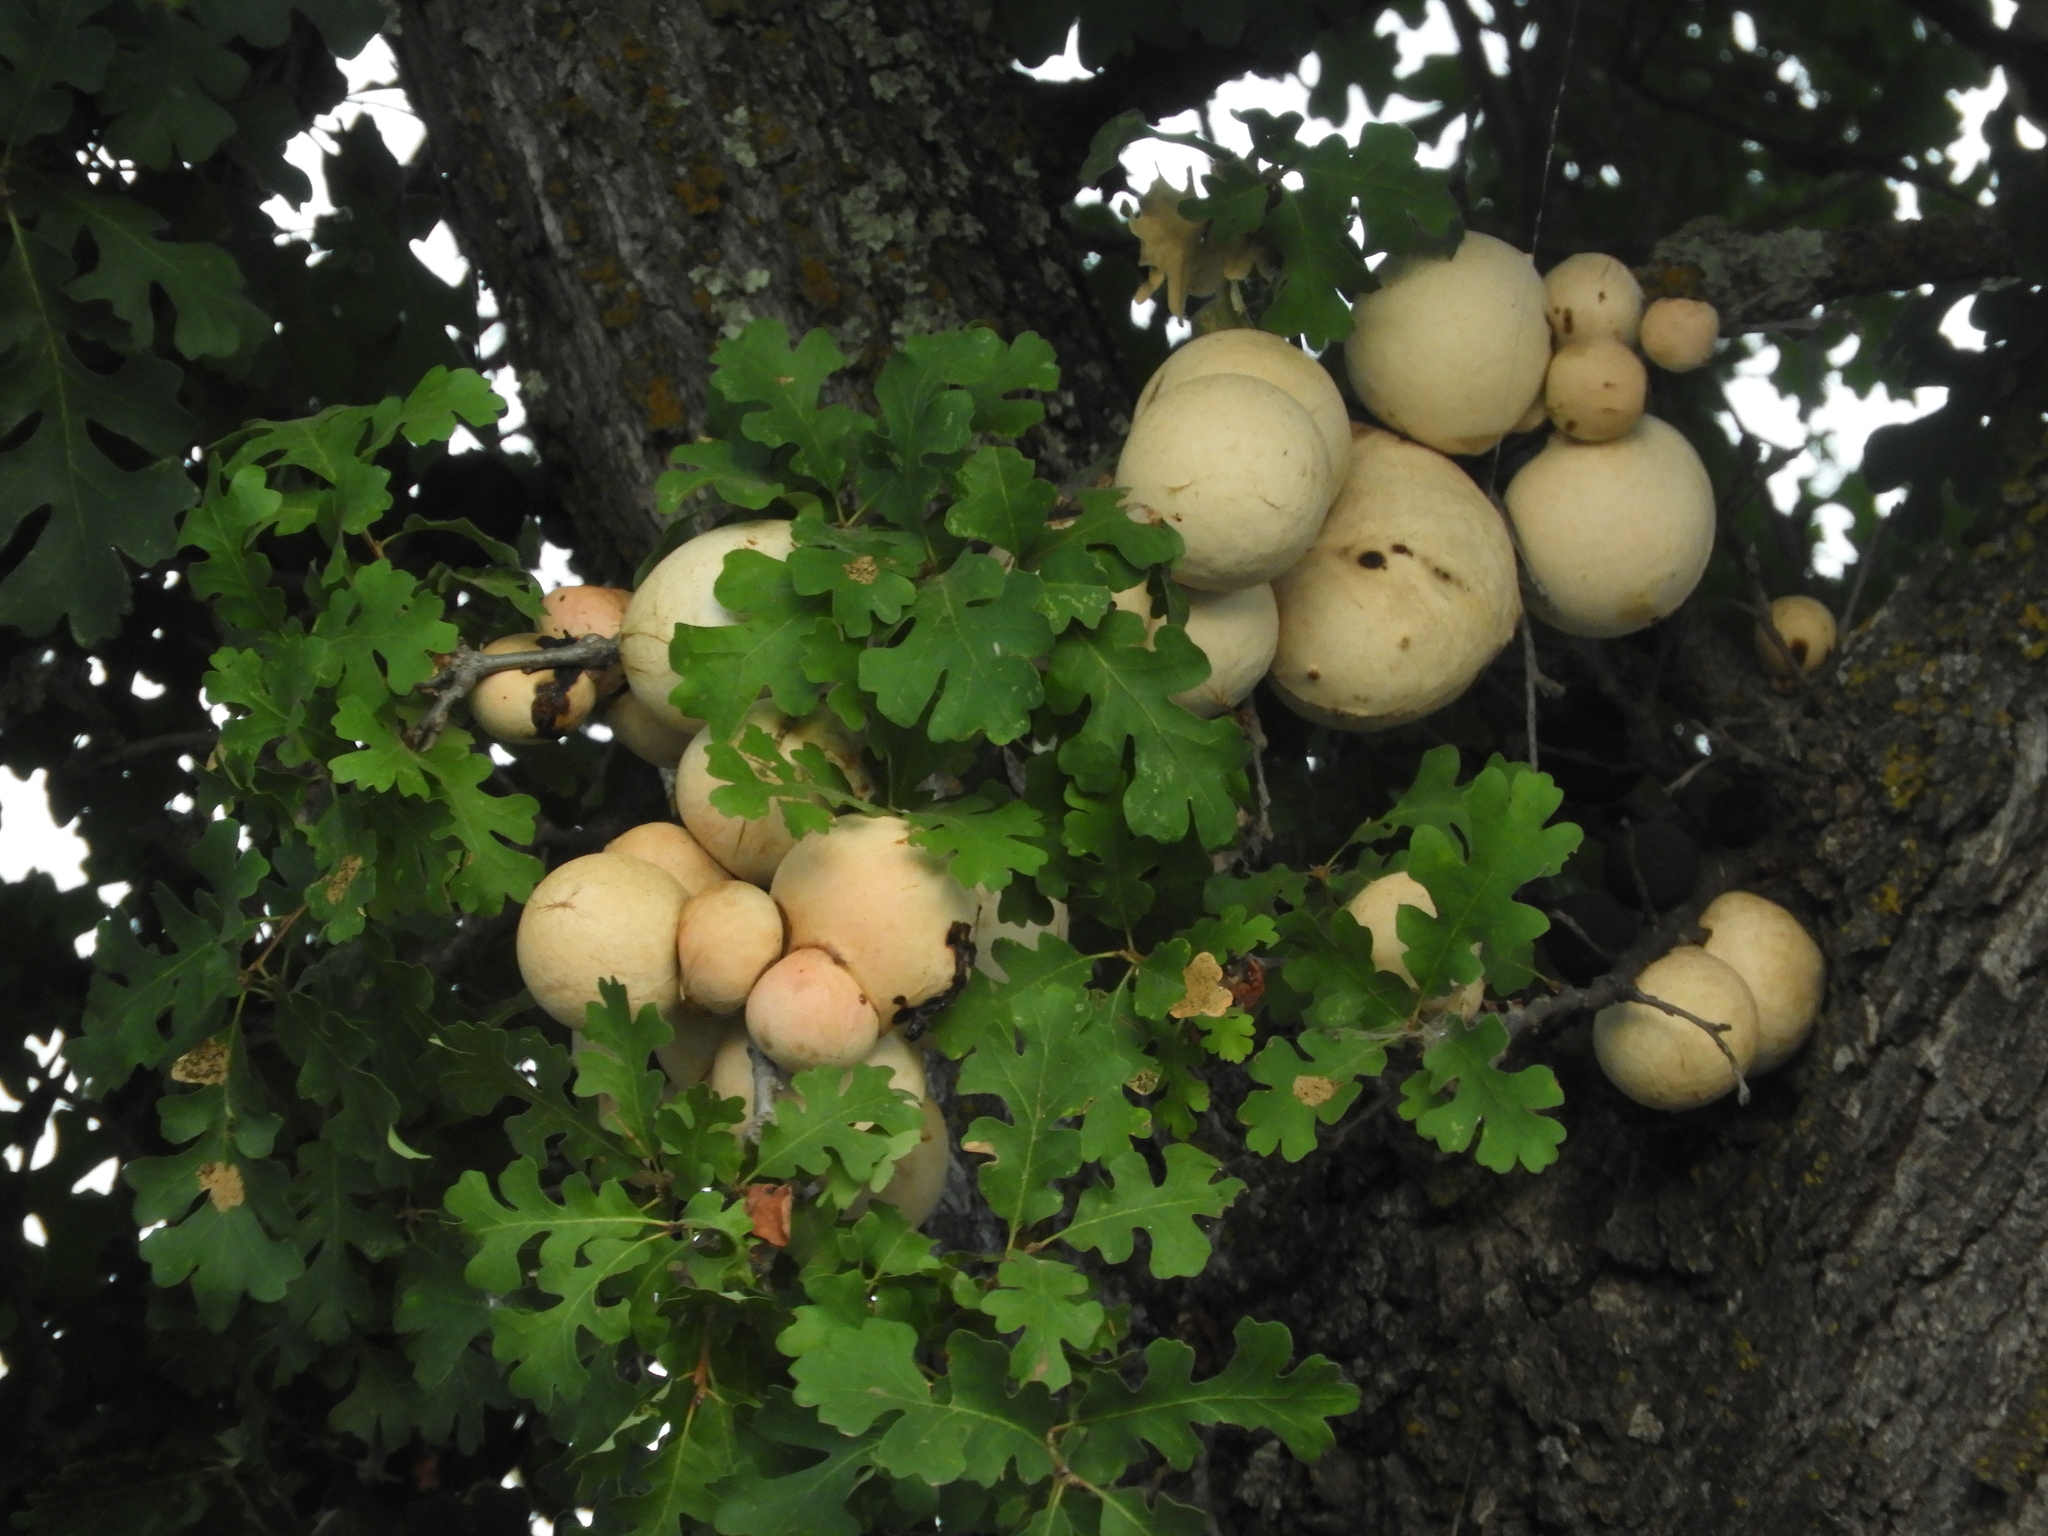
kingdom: Animalia
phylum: Arthropoda
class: Insecta
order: Hymenoptera
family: Cynipidae
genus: Andricus
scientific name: Andricus quercuscalifornicus
